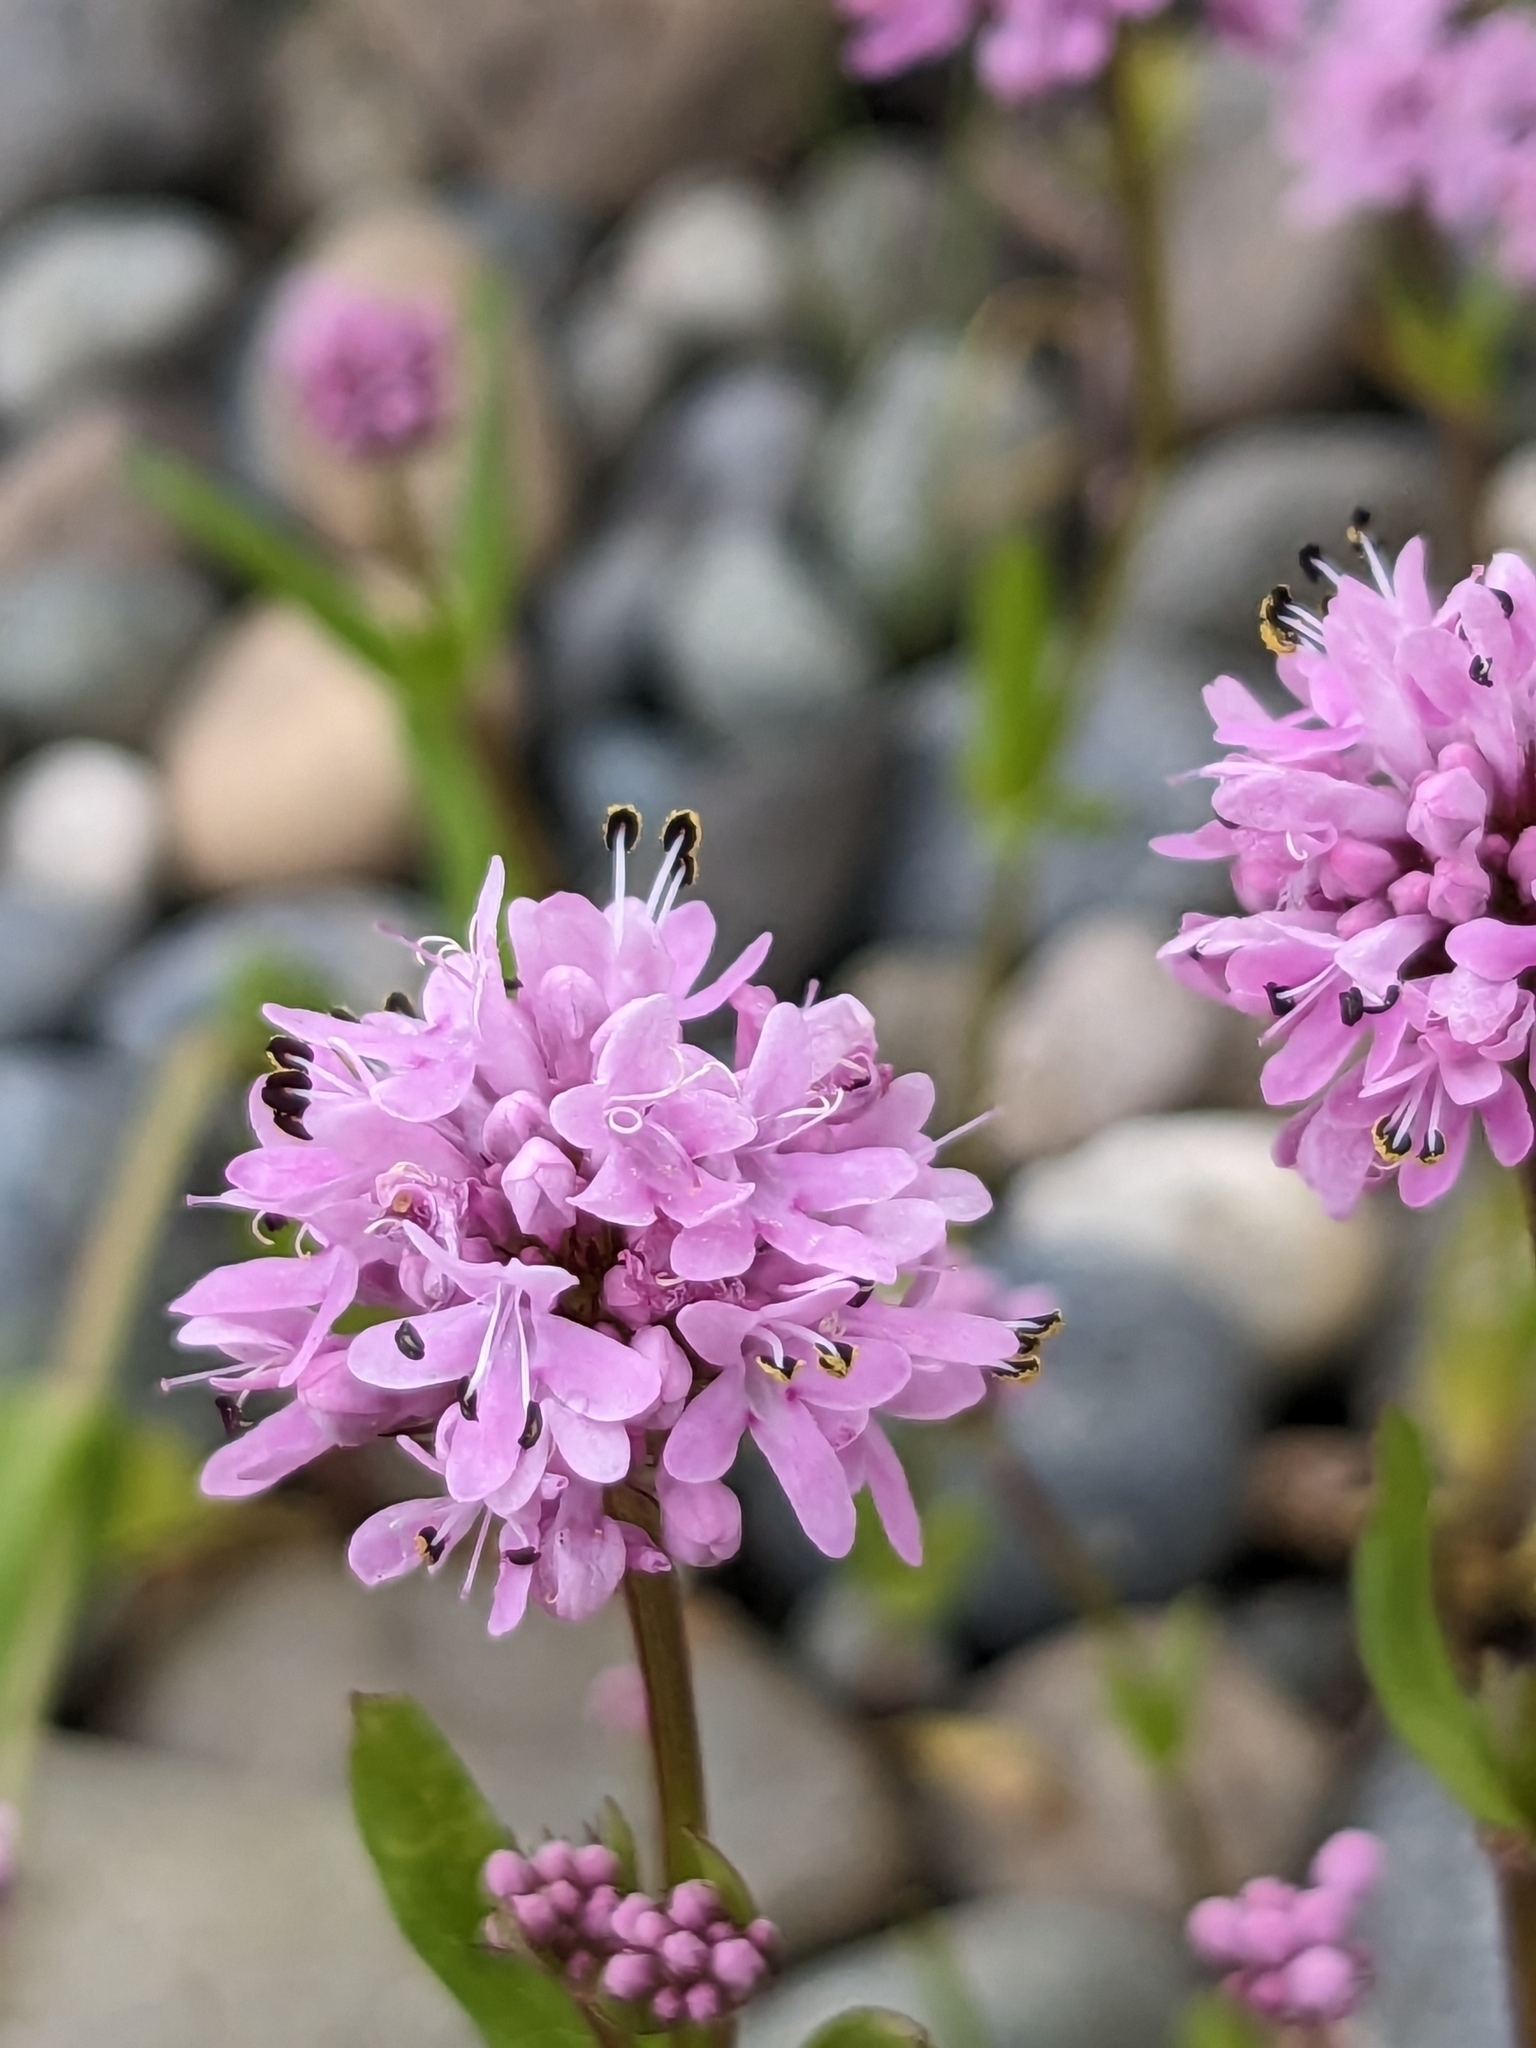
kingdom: Plantae
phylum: Tracheophyta
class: Magnoliopsida
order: Dipsacales
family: Caprifoliaceae
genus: Plectritis
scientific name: Plectritis congesta
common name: Pink plectritis
